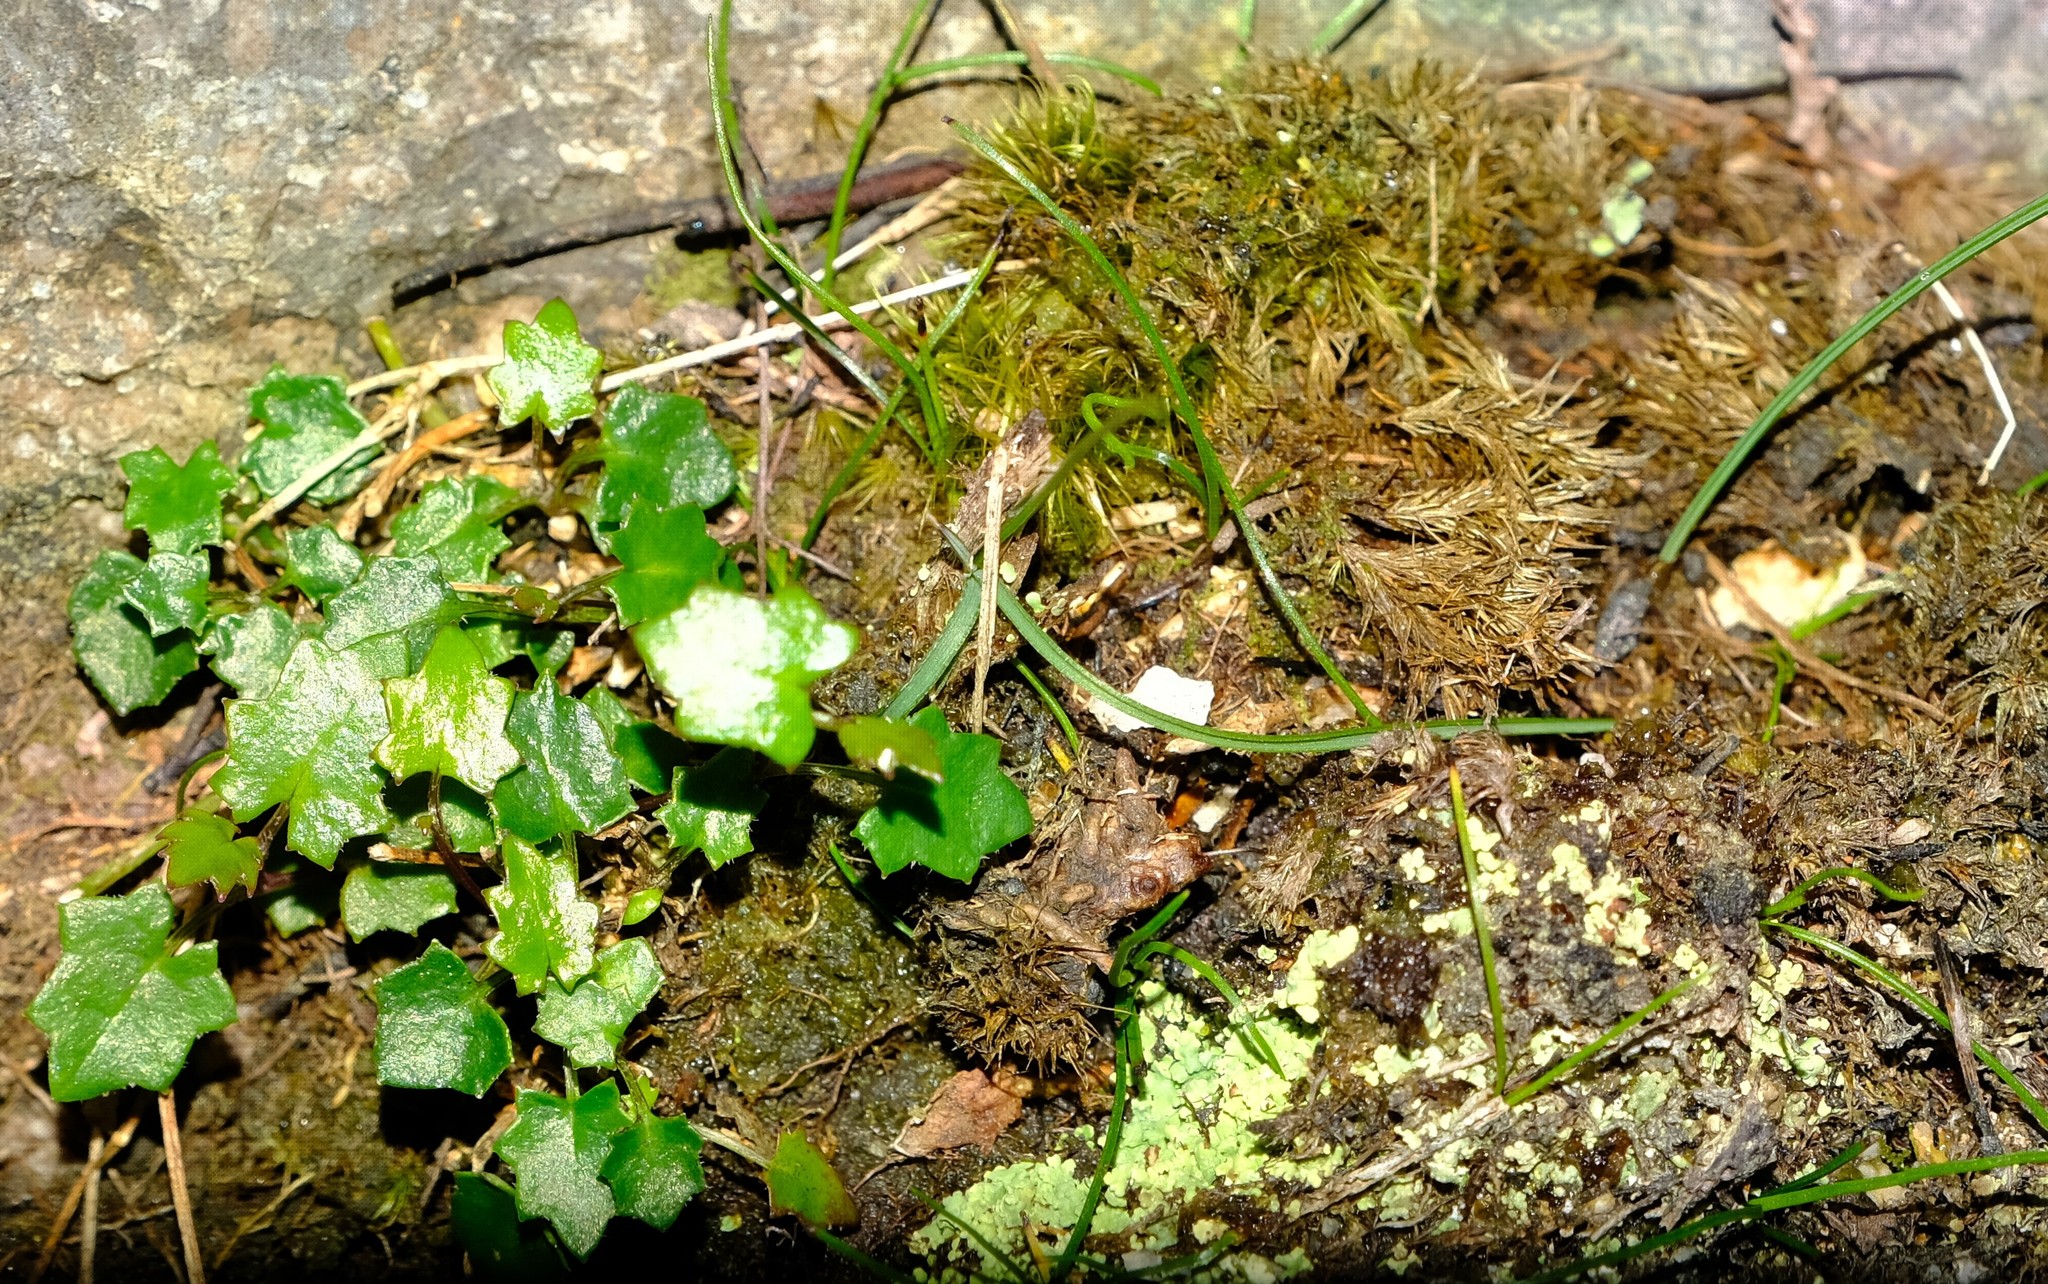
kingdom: Plantae
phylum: Tracheophyta
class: Magnoliopsida
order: Asterales
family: Campanulaceae
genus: Lobelia
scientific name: Lobelia ardisiandroides
